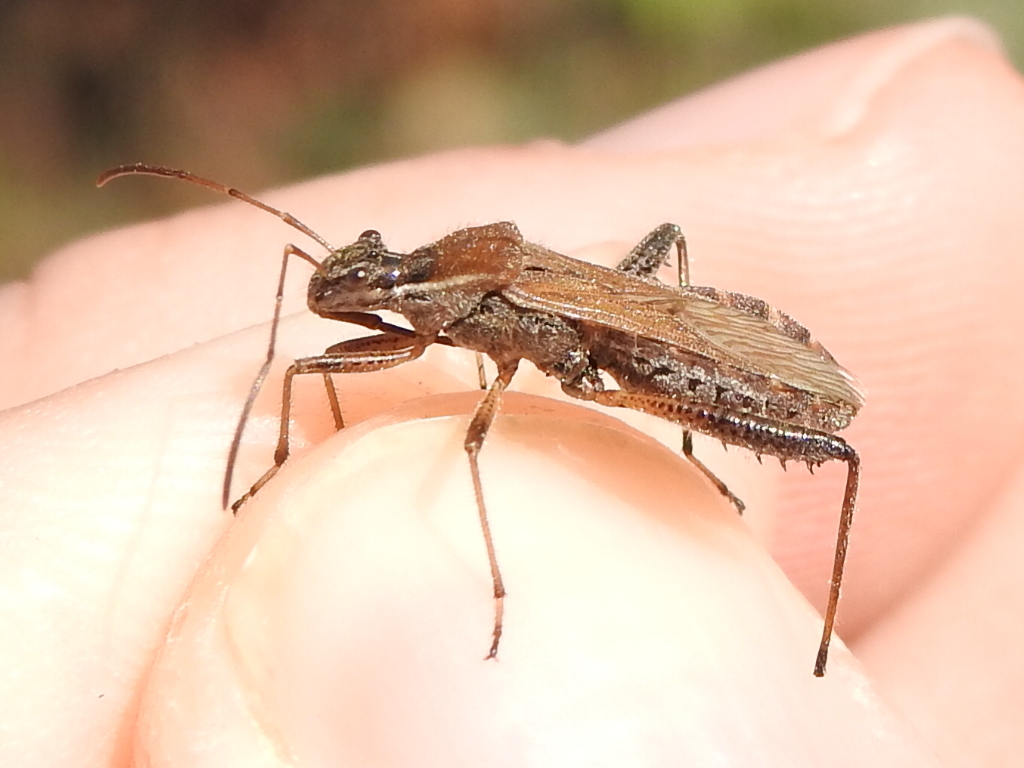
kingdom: Animalia
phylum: Arthropoda
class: Insecta
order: Hemiptera
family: Alydidae
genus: Alydus
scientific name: Alydus pilosulus
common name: Broad-headed bug
